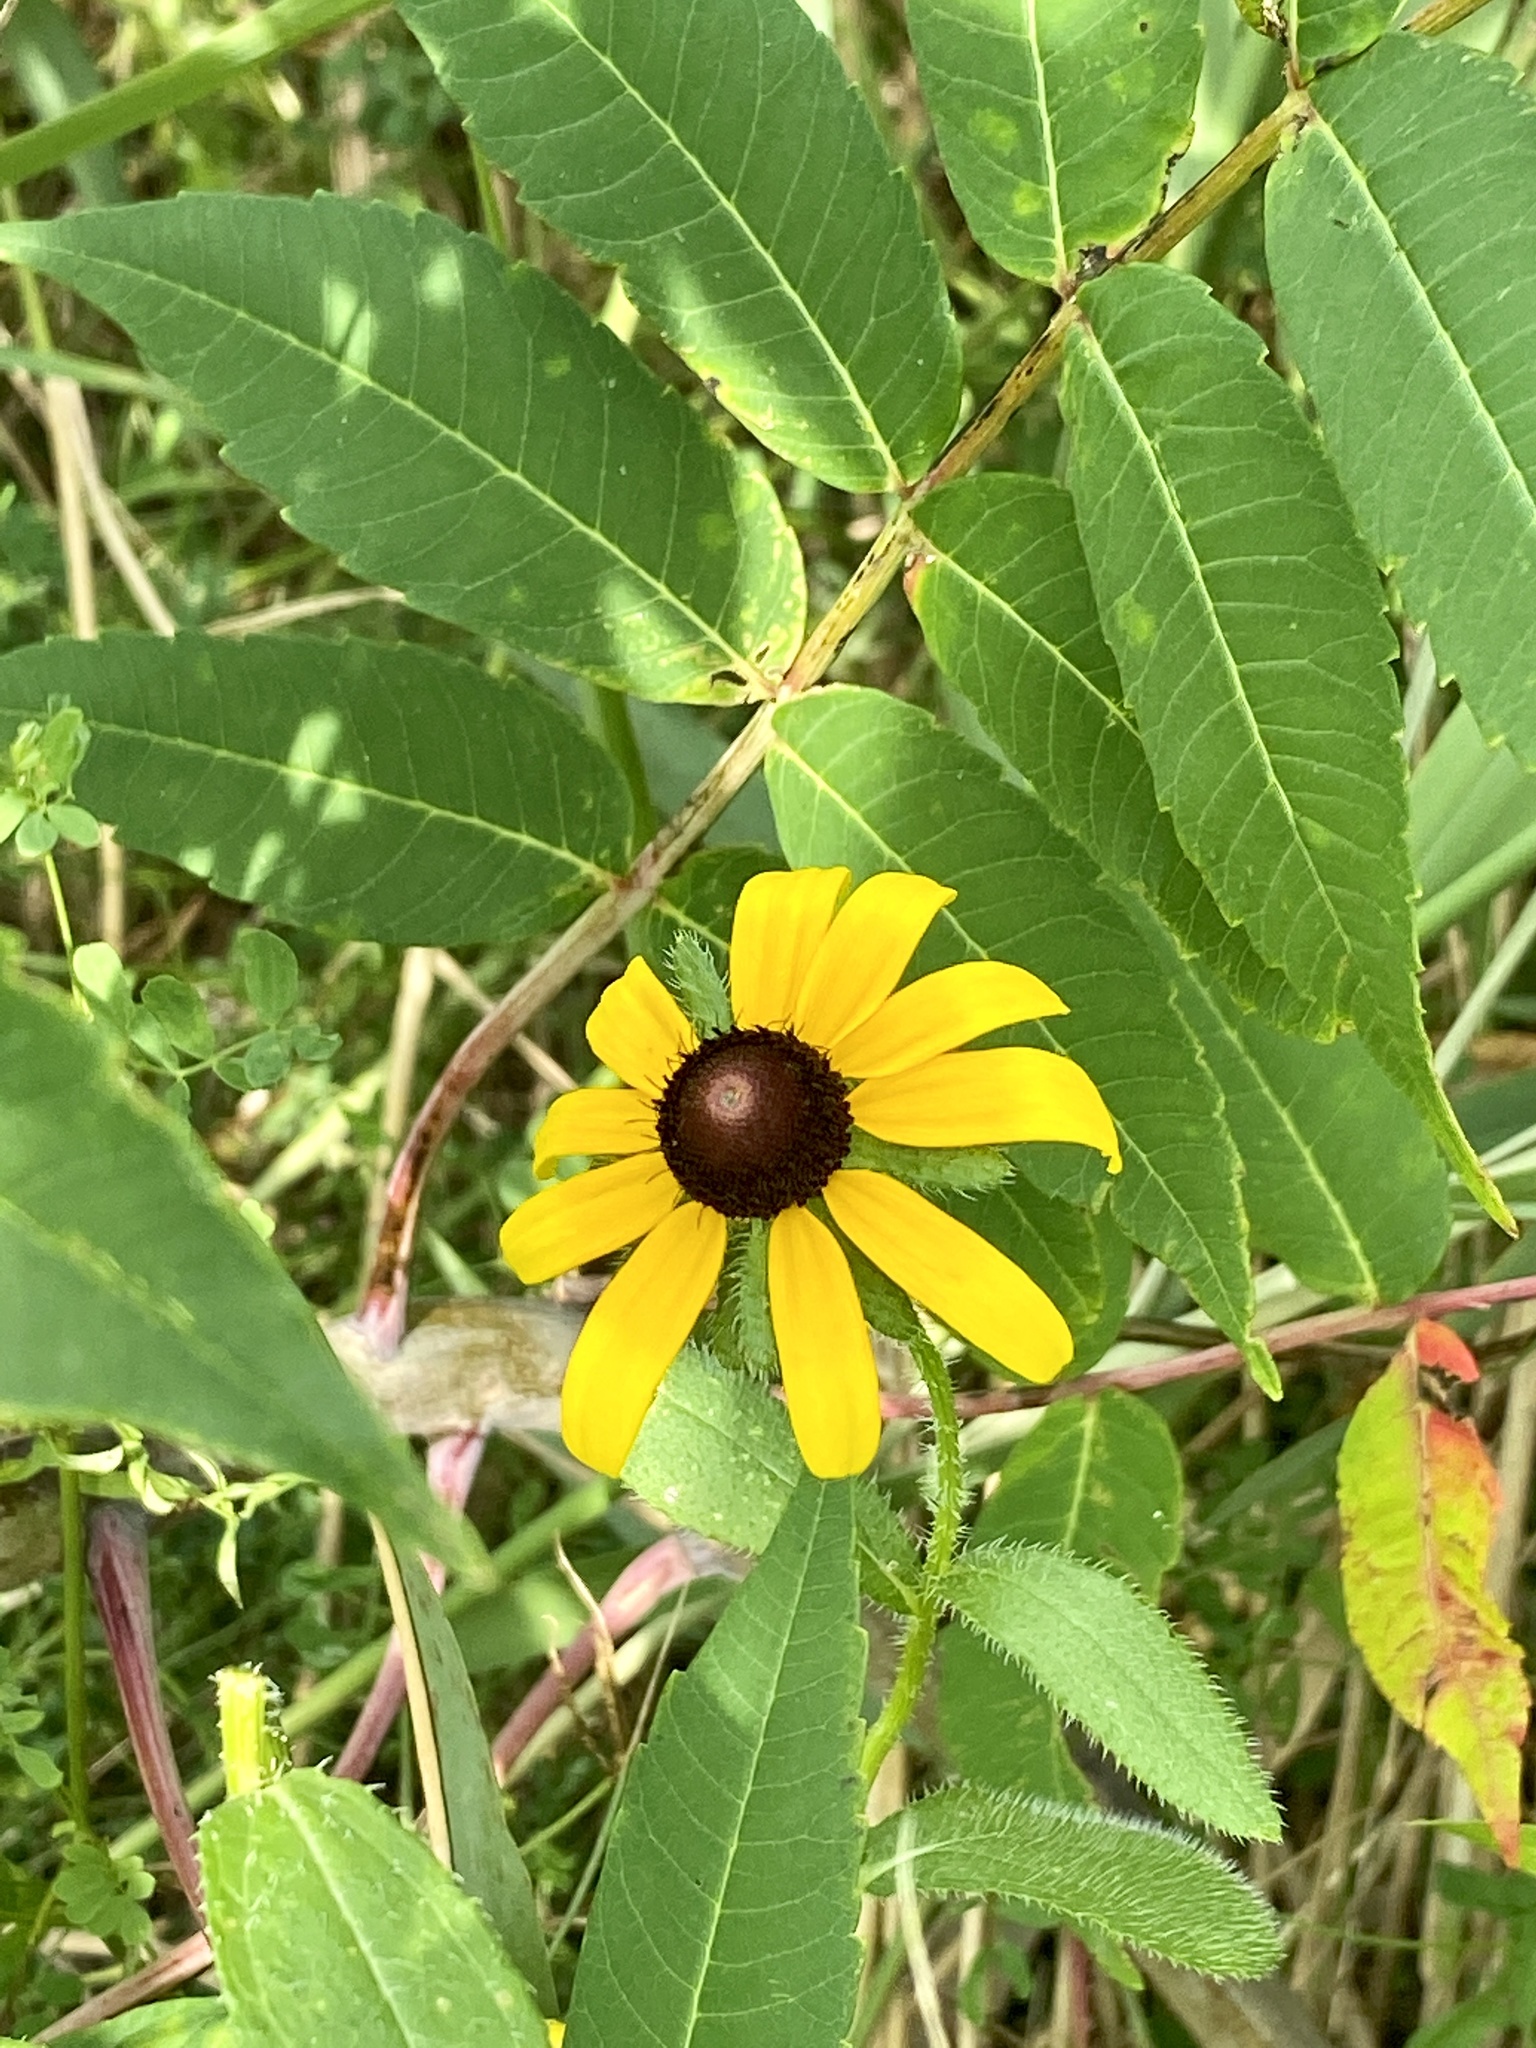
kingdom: Plantae
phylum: Tracheophyta
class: Magnoliopsida
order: Asterales
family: Asteraceae
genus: Rudbeckia
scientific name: Rudbeckia hirta
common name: Black-eyed-susan
